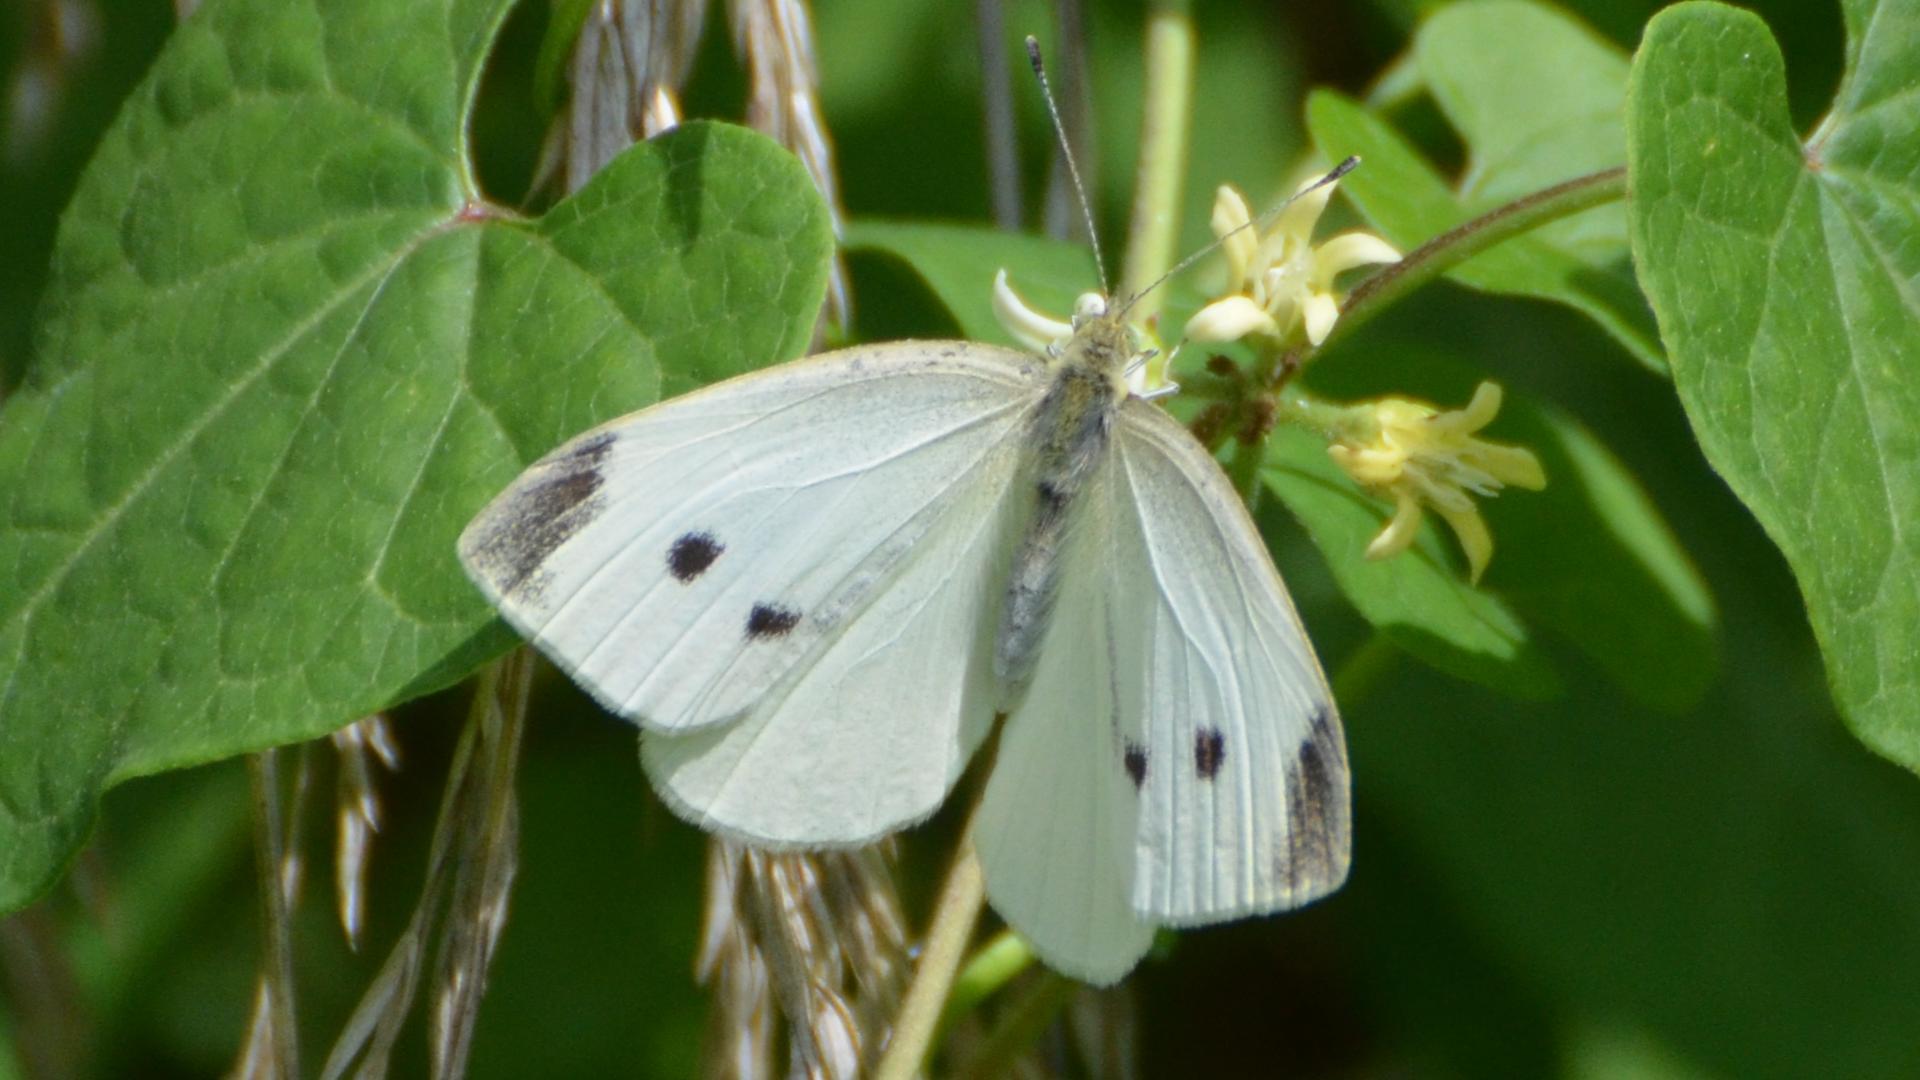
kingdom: Animalia
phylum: Arthropoda
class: Insecta
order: Lepidoptera
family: Pieridae
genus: Pieris
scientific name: Pieris rapae
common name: Small white
